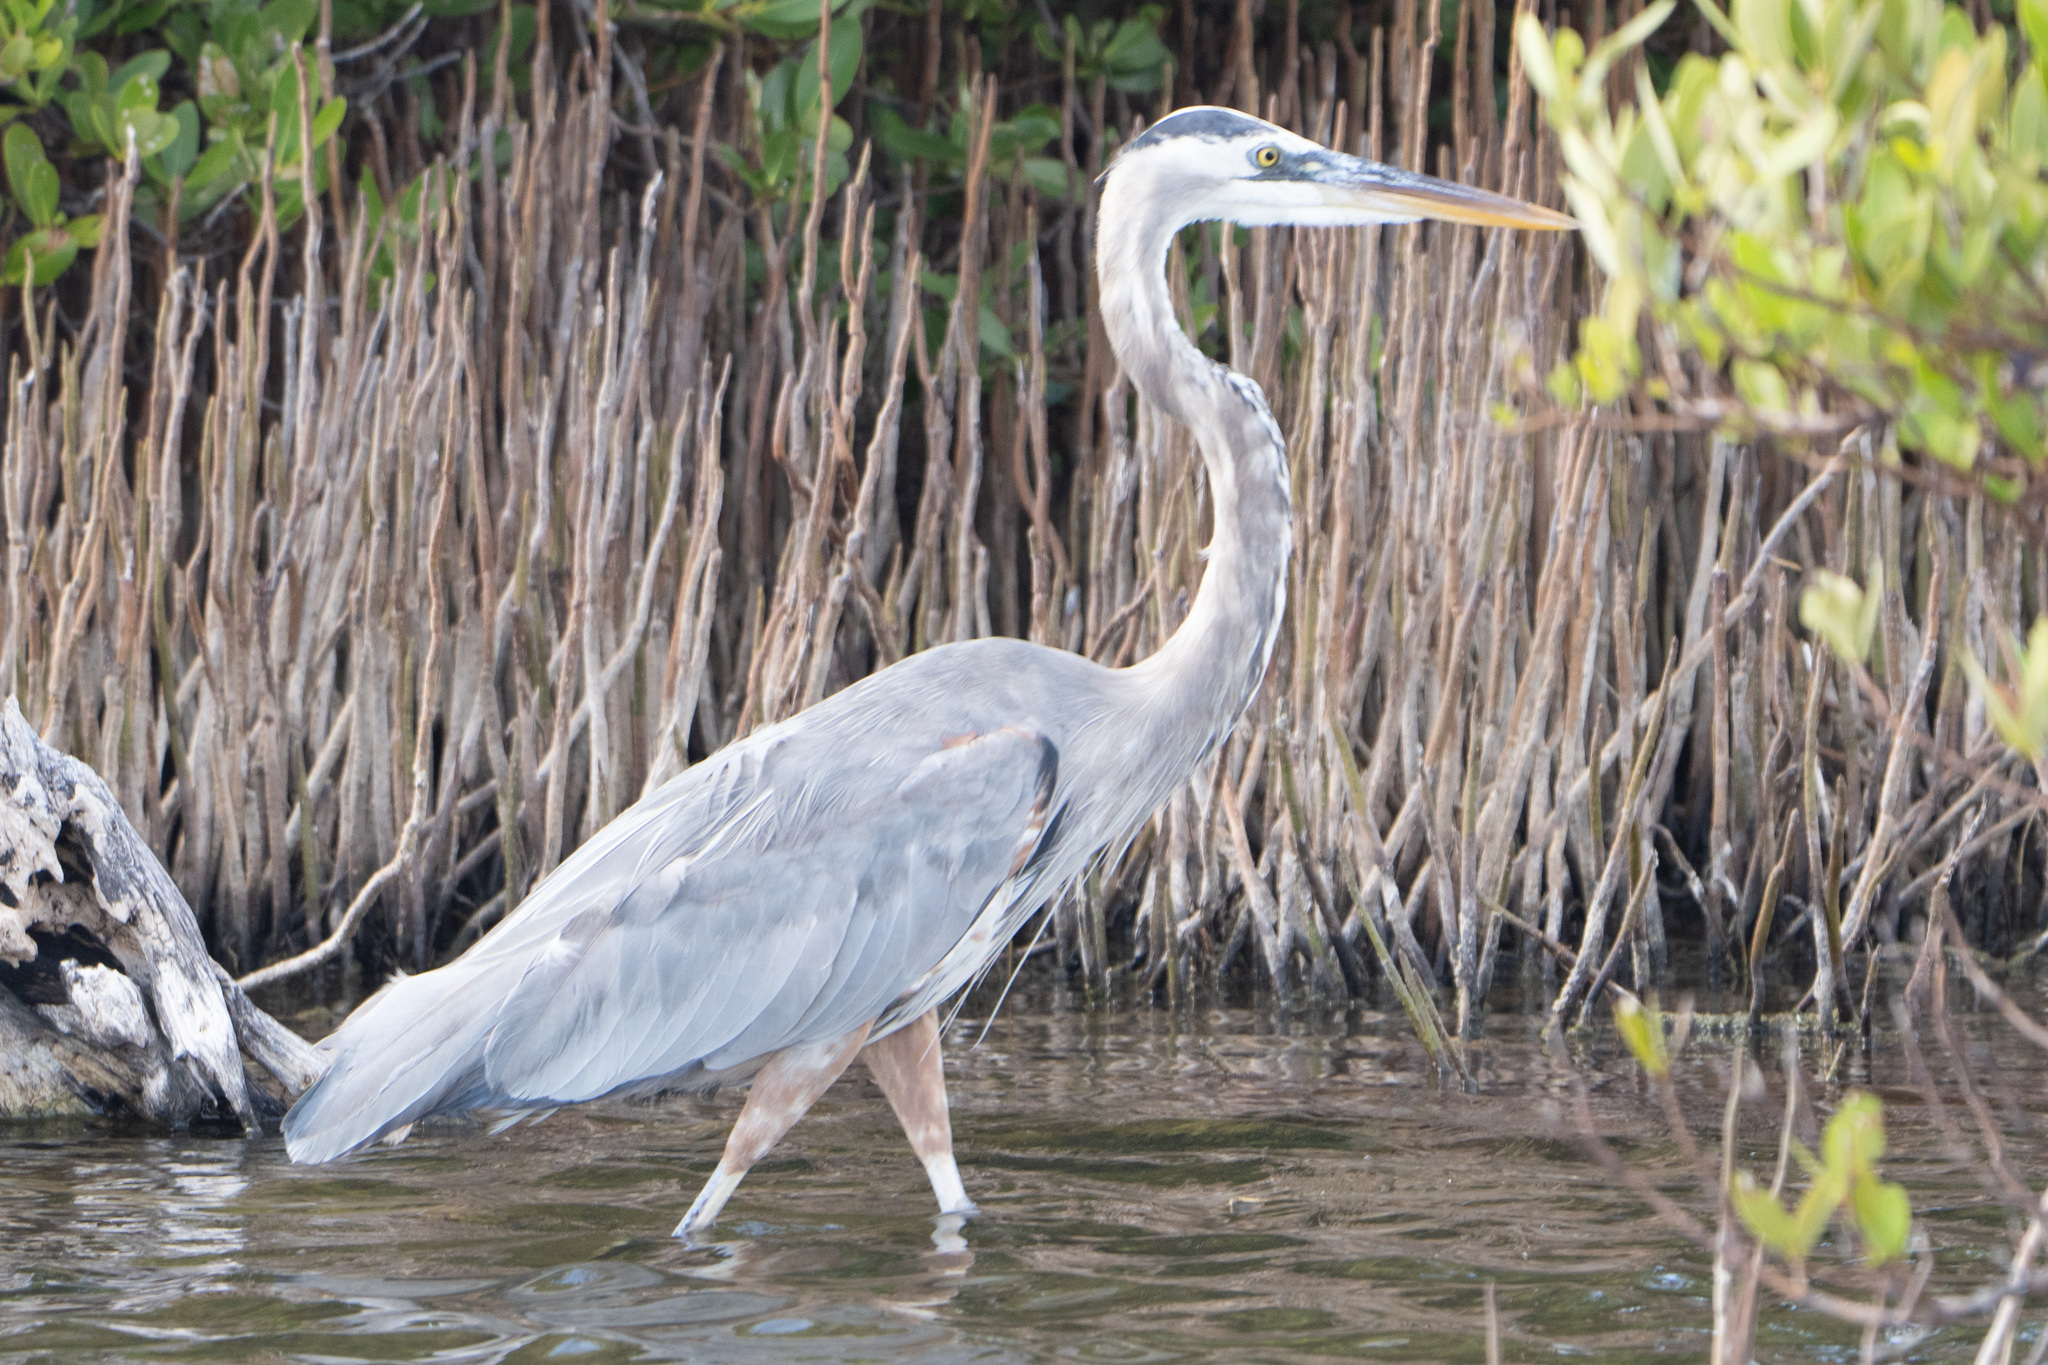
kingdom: Animalia
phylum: Chordata
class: Aves
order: Pelecaniformes
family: Ardeidae
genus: Ardea
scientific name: Ardea herodias
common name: Great blue heron
